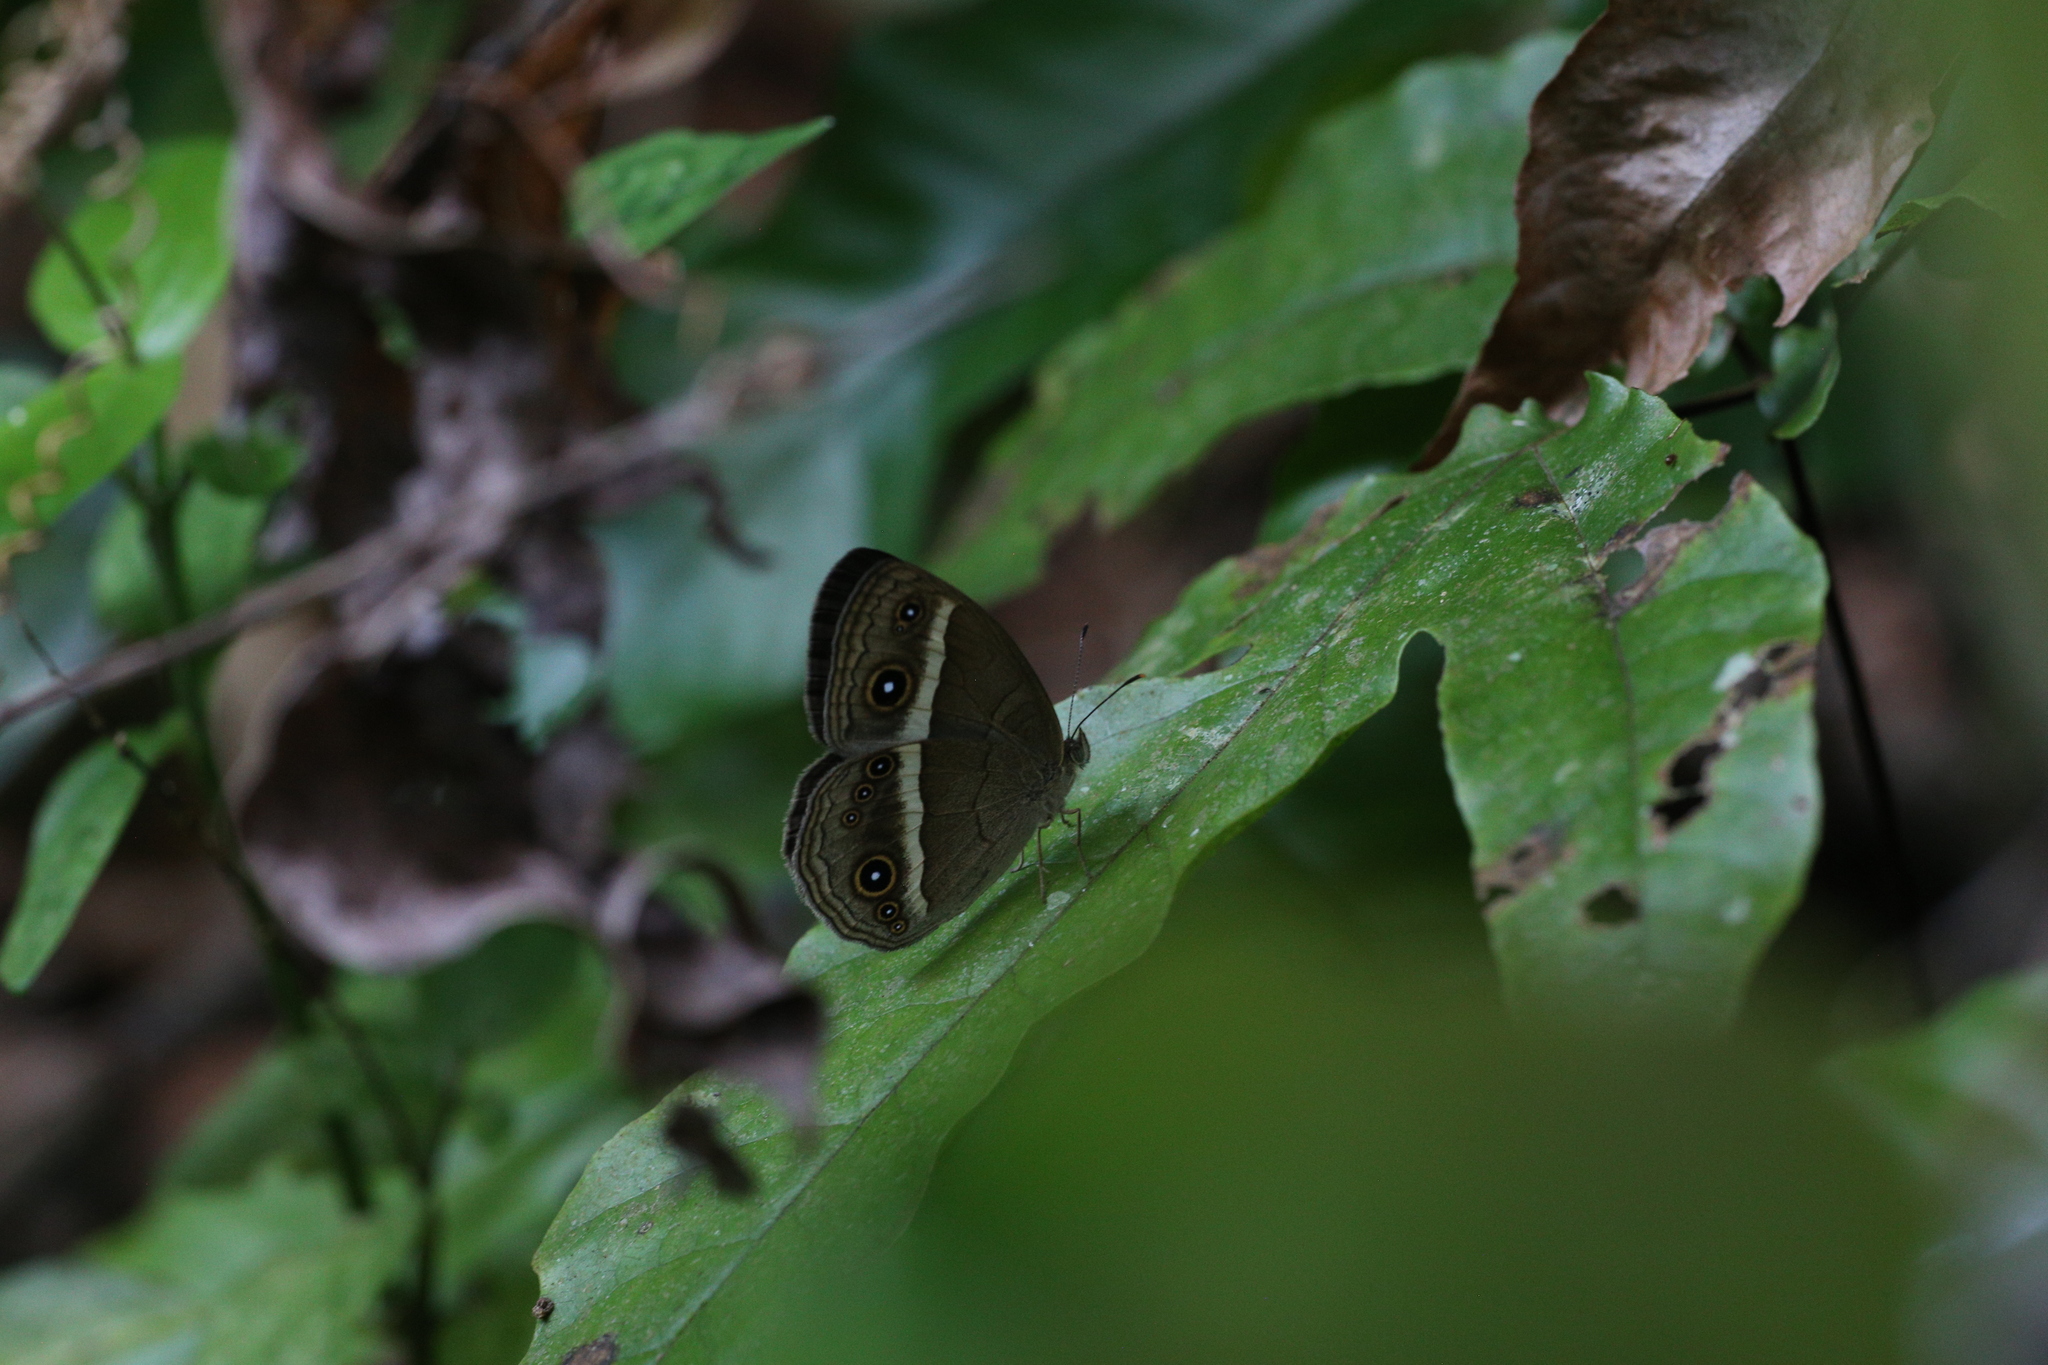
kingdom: Animalia
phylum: Arthropoda
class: Insecta
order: Lepidoptera
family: Nymphalidae
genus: Mycalesis
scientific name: Mycalesis gotama
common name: Chinese bushbrown
